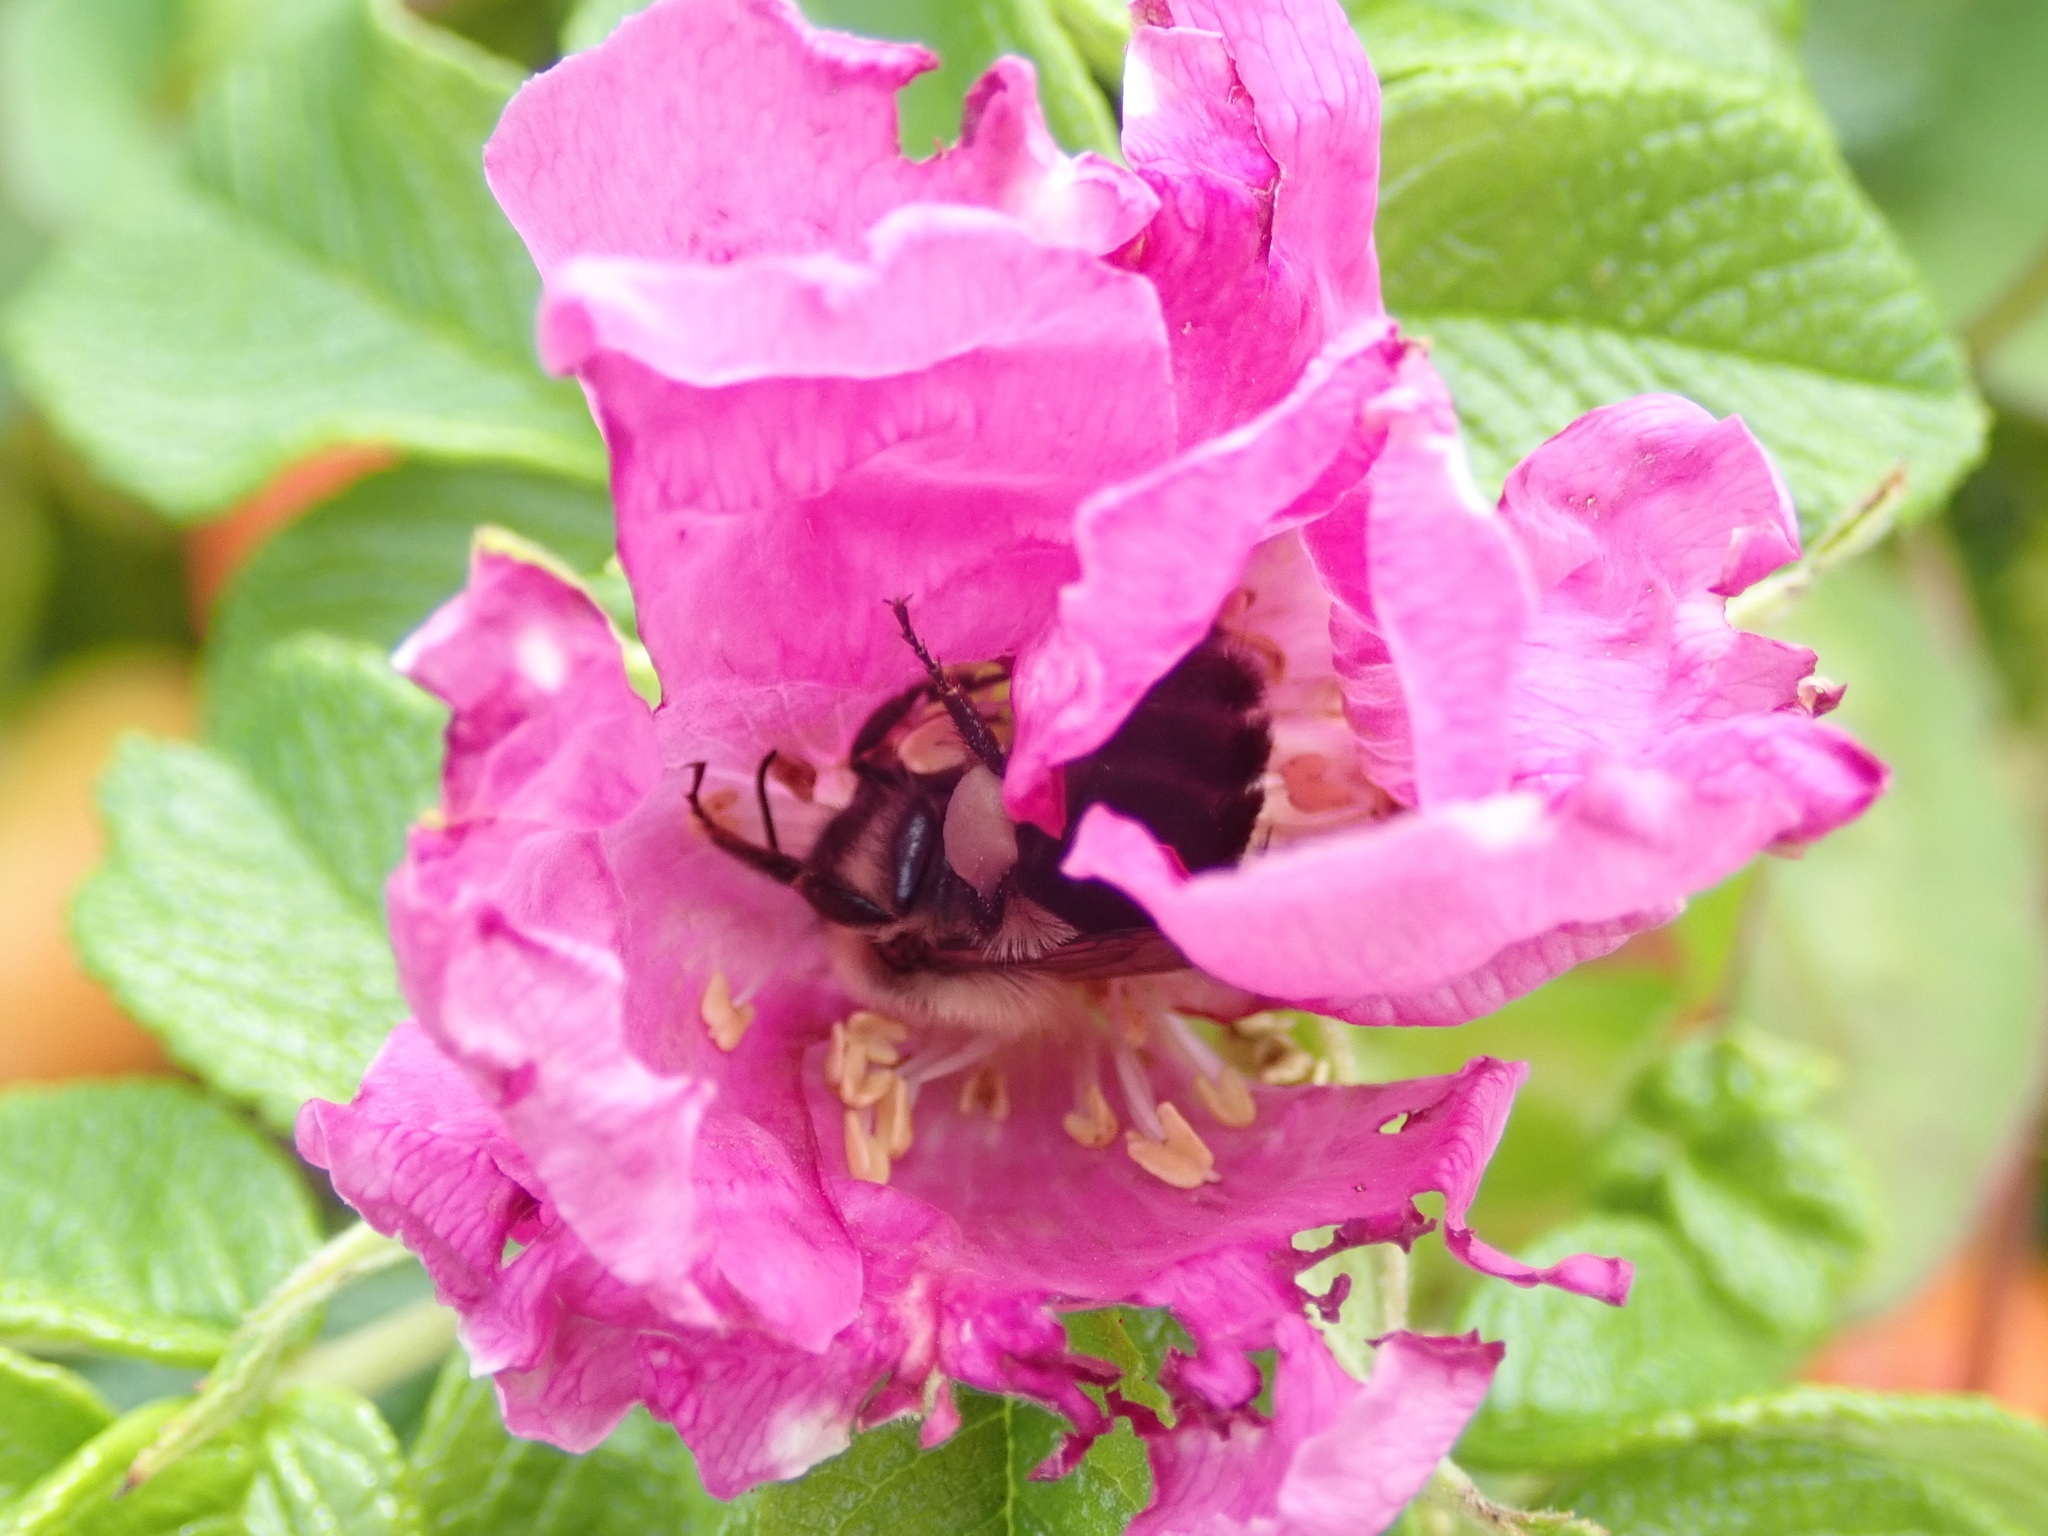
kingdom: Animalia
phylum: Arthropoda
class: Insecta
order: Hymenoptera
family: Apidae
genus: Bombus
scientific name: Bombus impatiens
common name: Common eastern bumble bee
